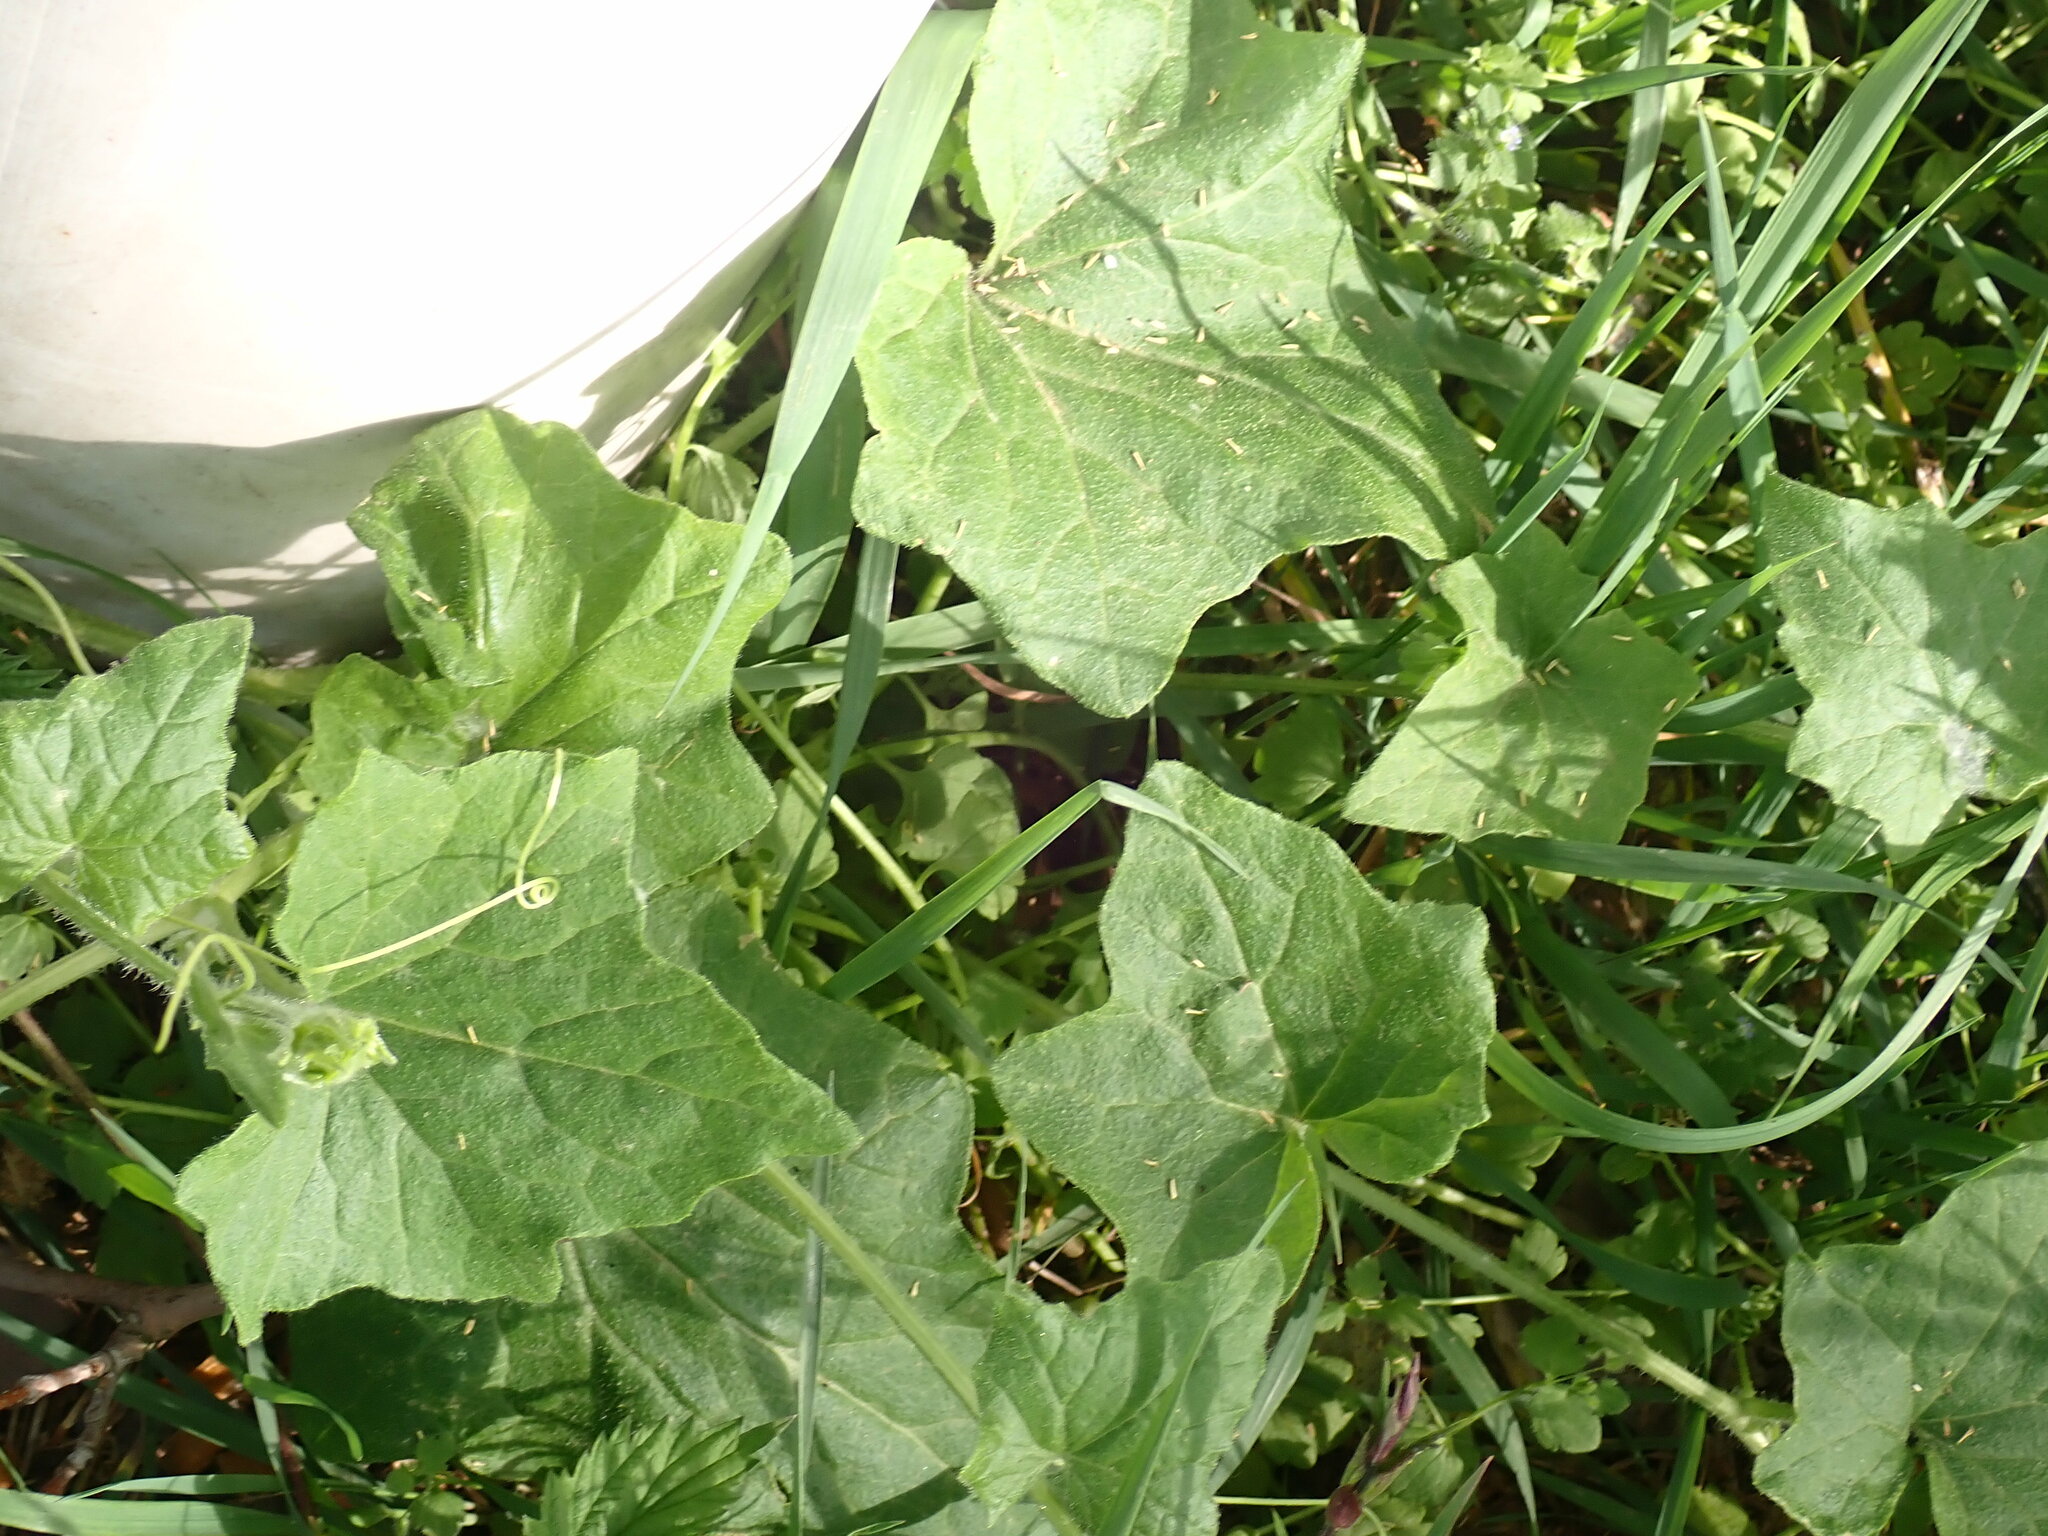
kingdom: Plantae
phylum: Tracheophyta
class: Magnoliopsida
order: Cucurbitales
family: Cucurbitaceae
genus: Bryonia
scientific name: Bryonia cretica
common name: Cretan bryony
